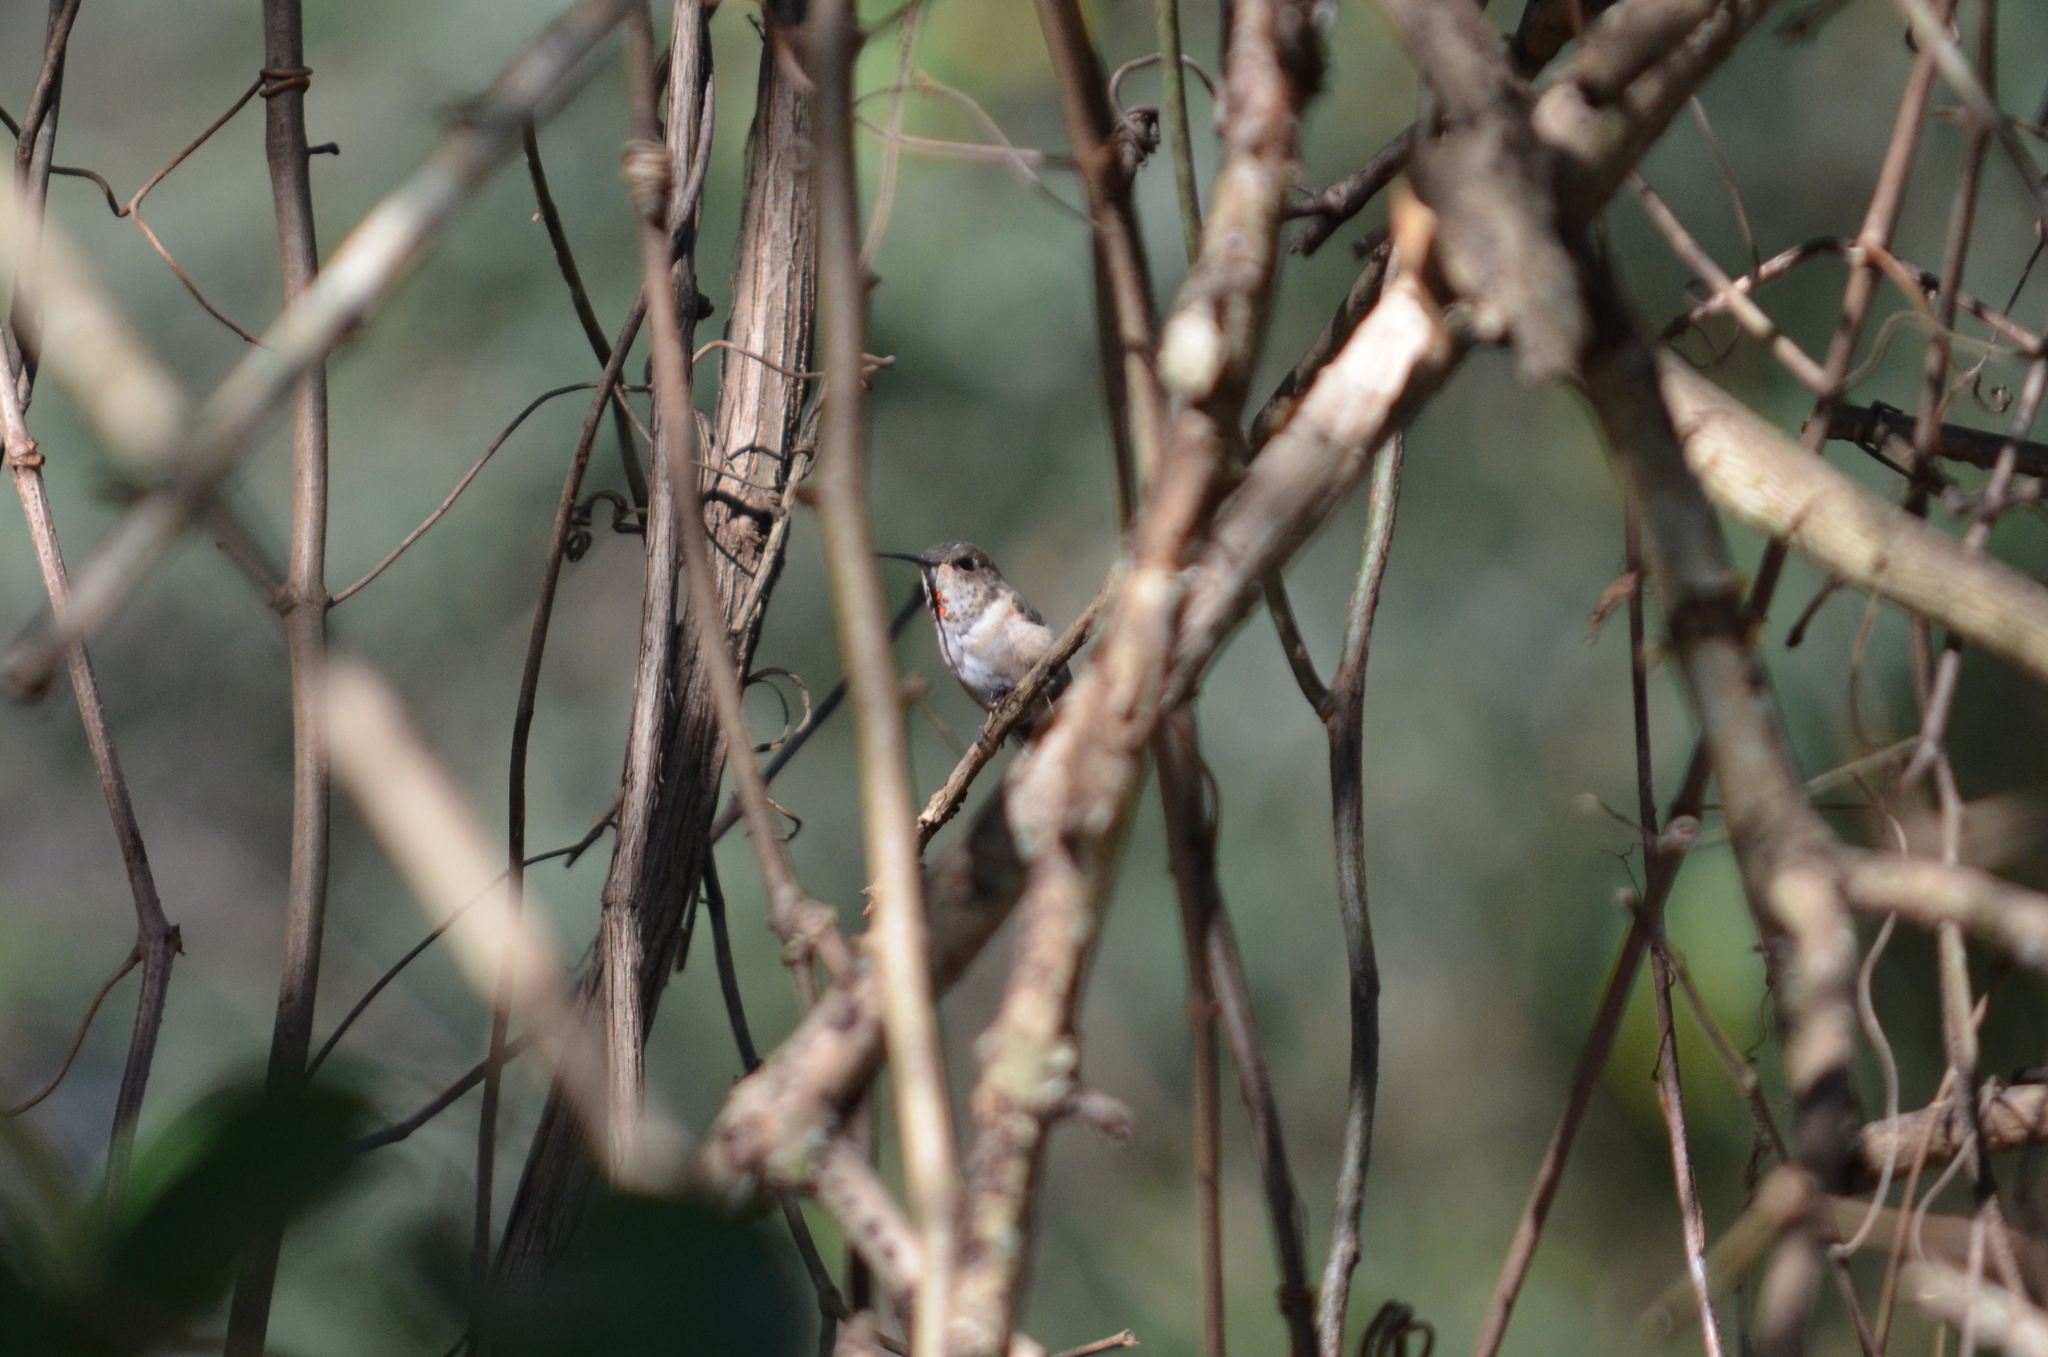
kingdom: Animalia
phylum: Chordata
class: Aves
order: Apodiformes
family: Trochilidae
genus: Selasphorus
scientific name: Selasphorus
